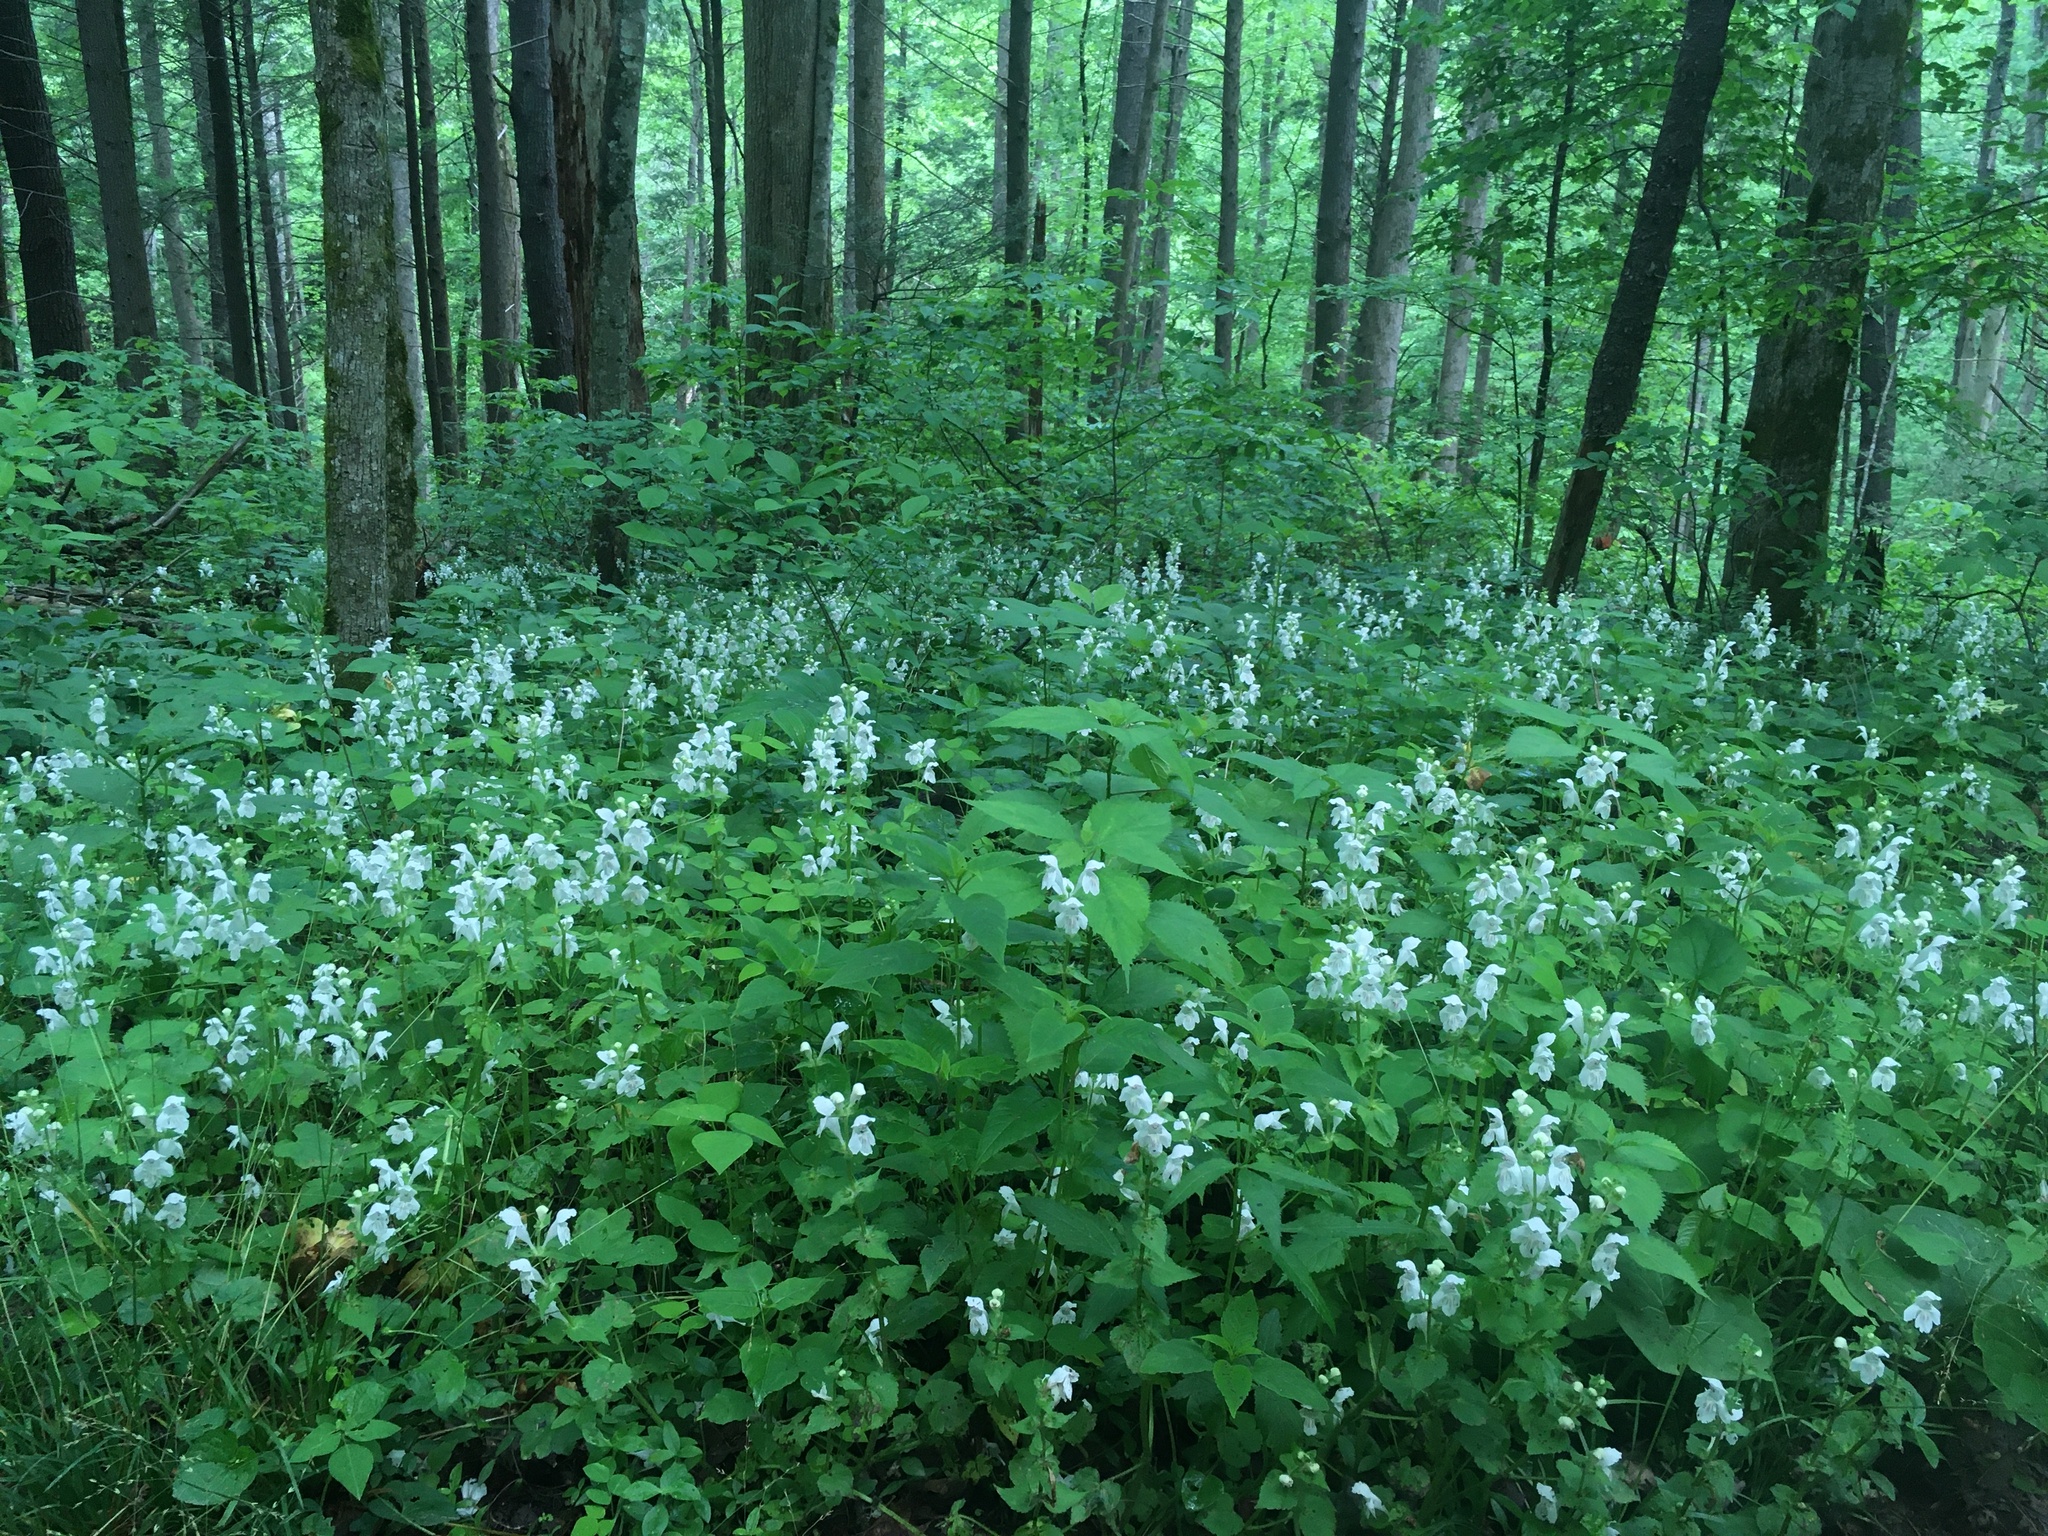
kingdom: Plantae
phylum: Tracheophyta
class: Magnoliopsida
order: Lamiales
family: Lamiaceae
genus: Synandra
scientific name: Synandra hispidula
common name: Synandra
